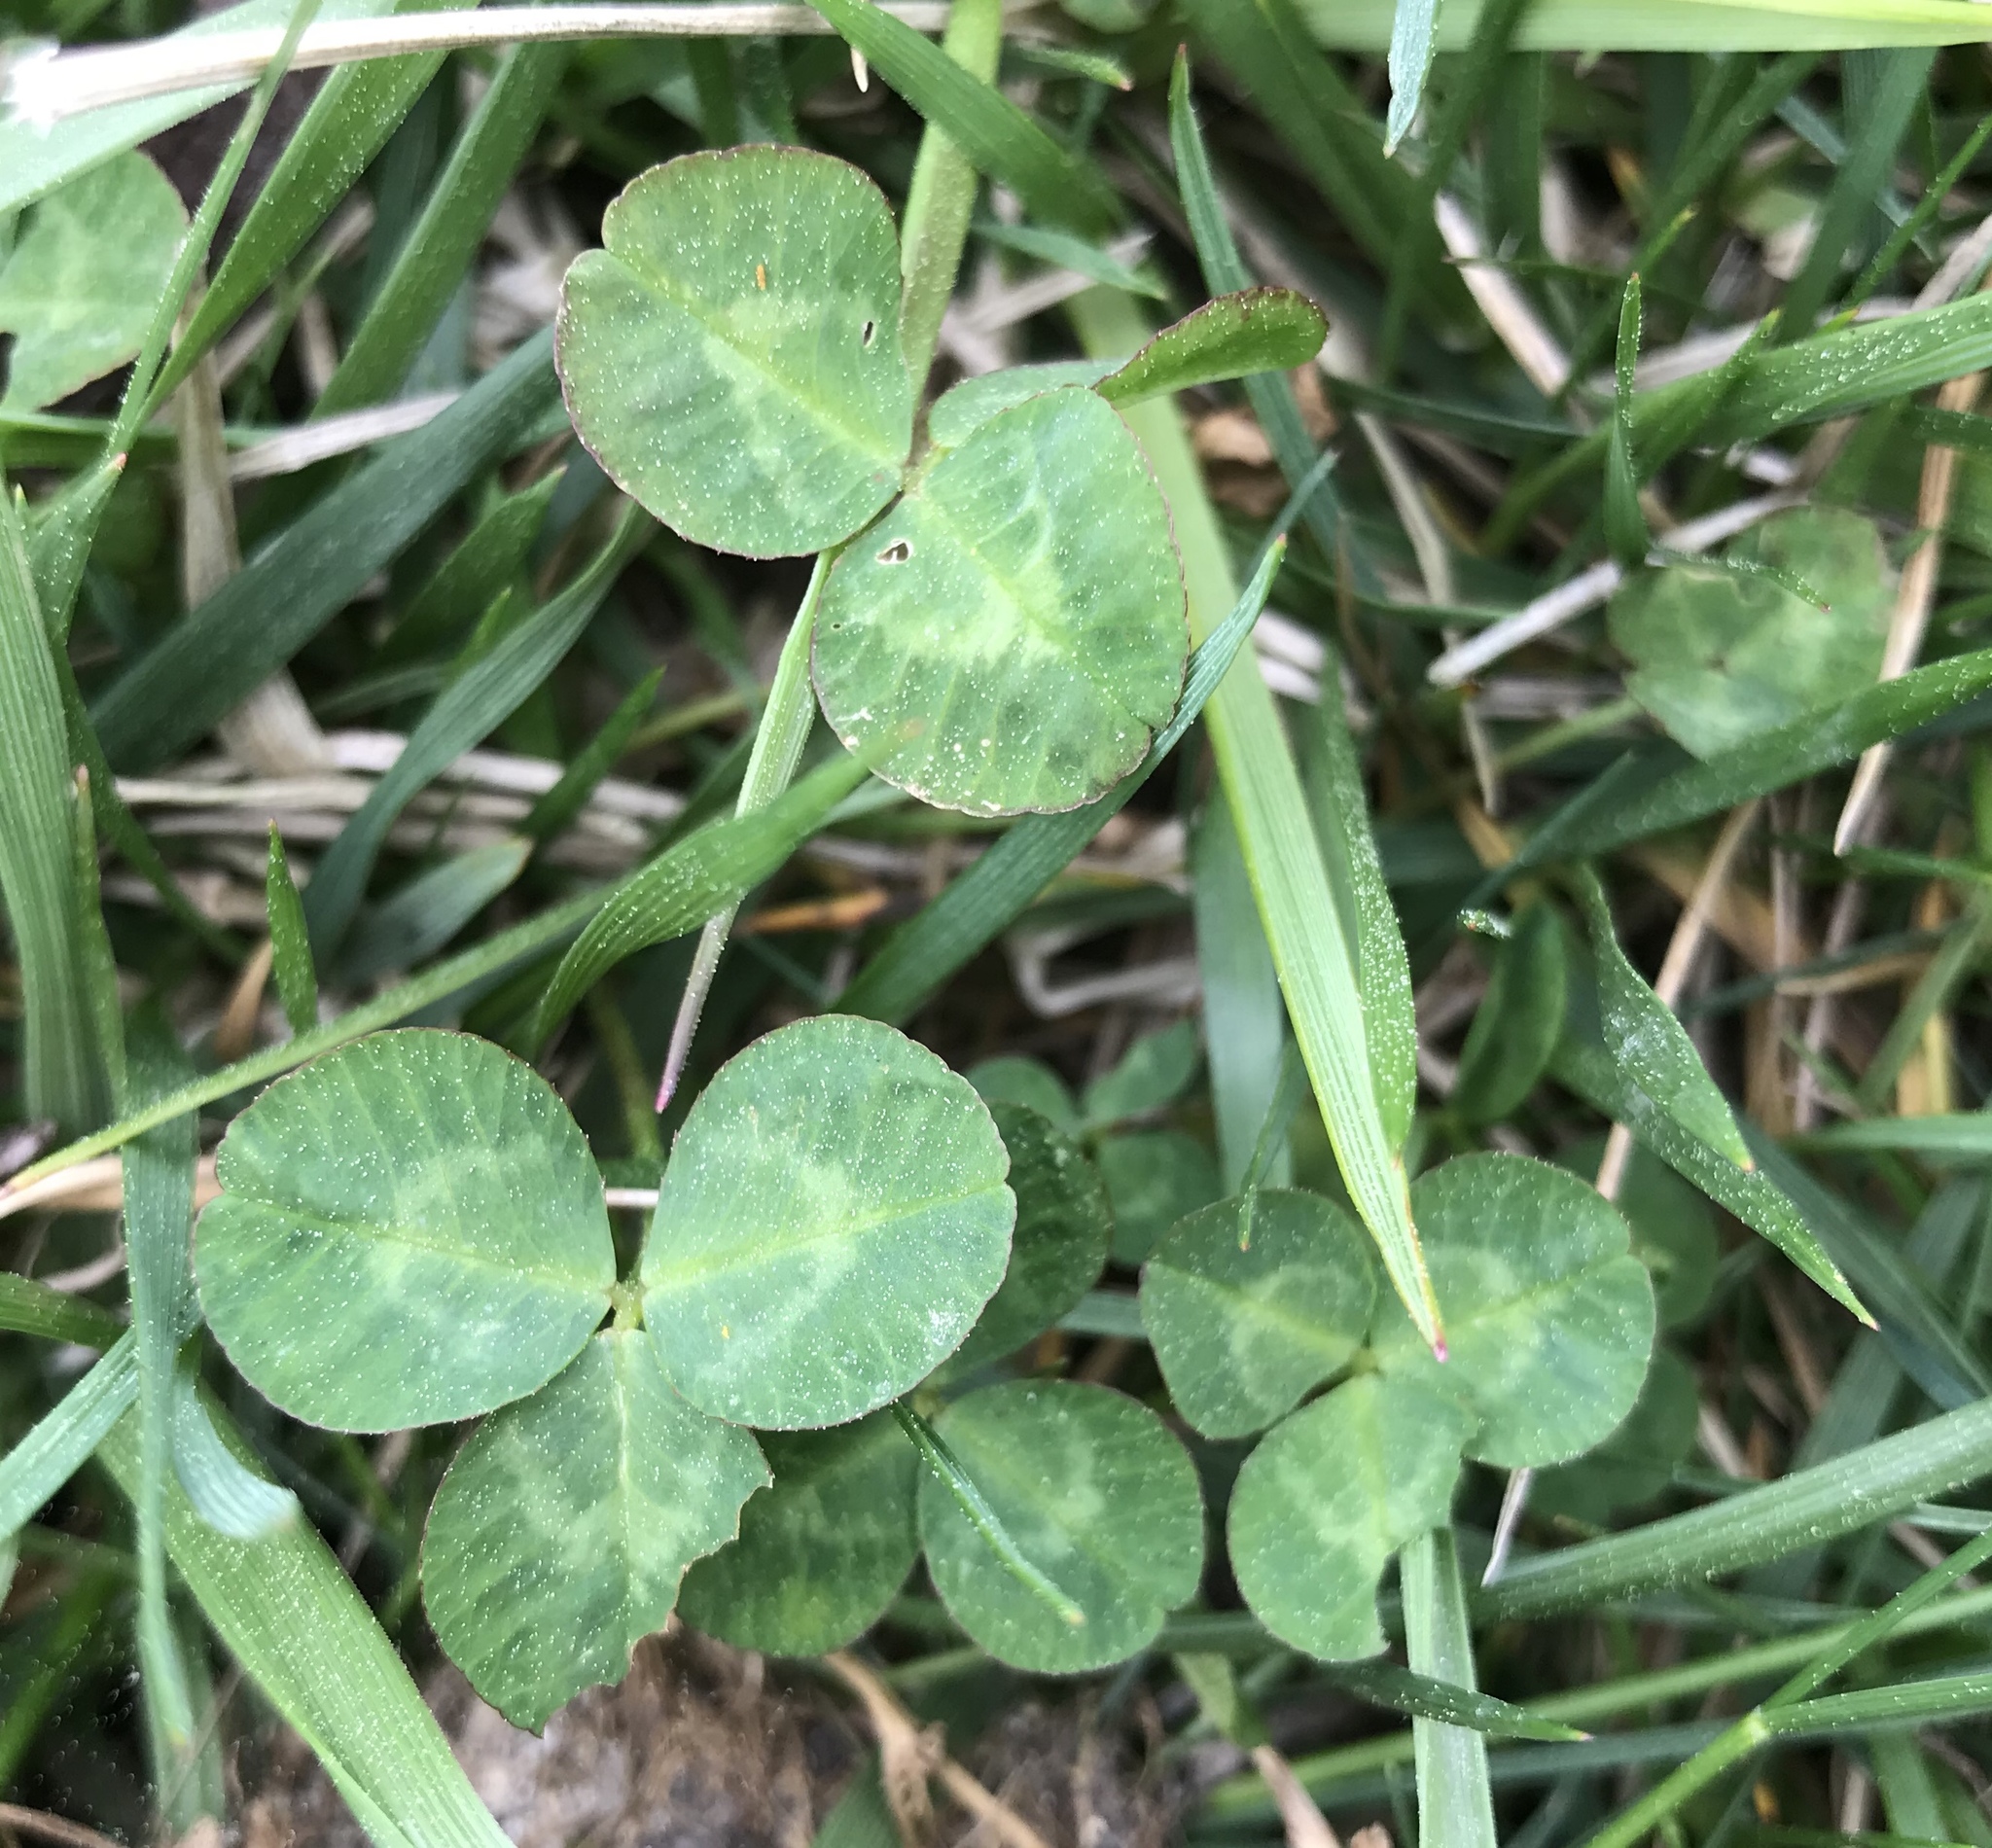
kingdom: Plantae
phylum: Tracheophyta
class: Magnoliopsida
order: Fabales
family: Fabaceae
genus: Trifolium
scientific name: Trifolium repens
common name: White clover
